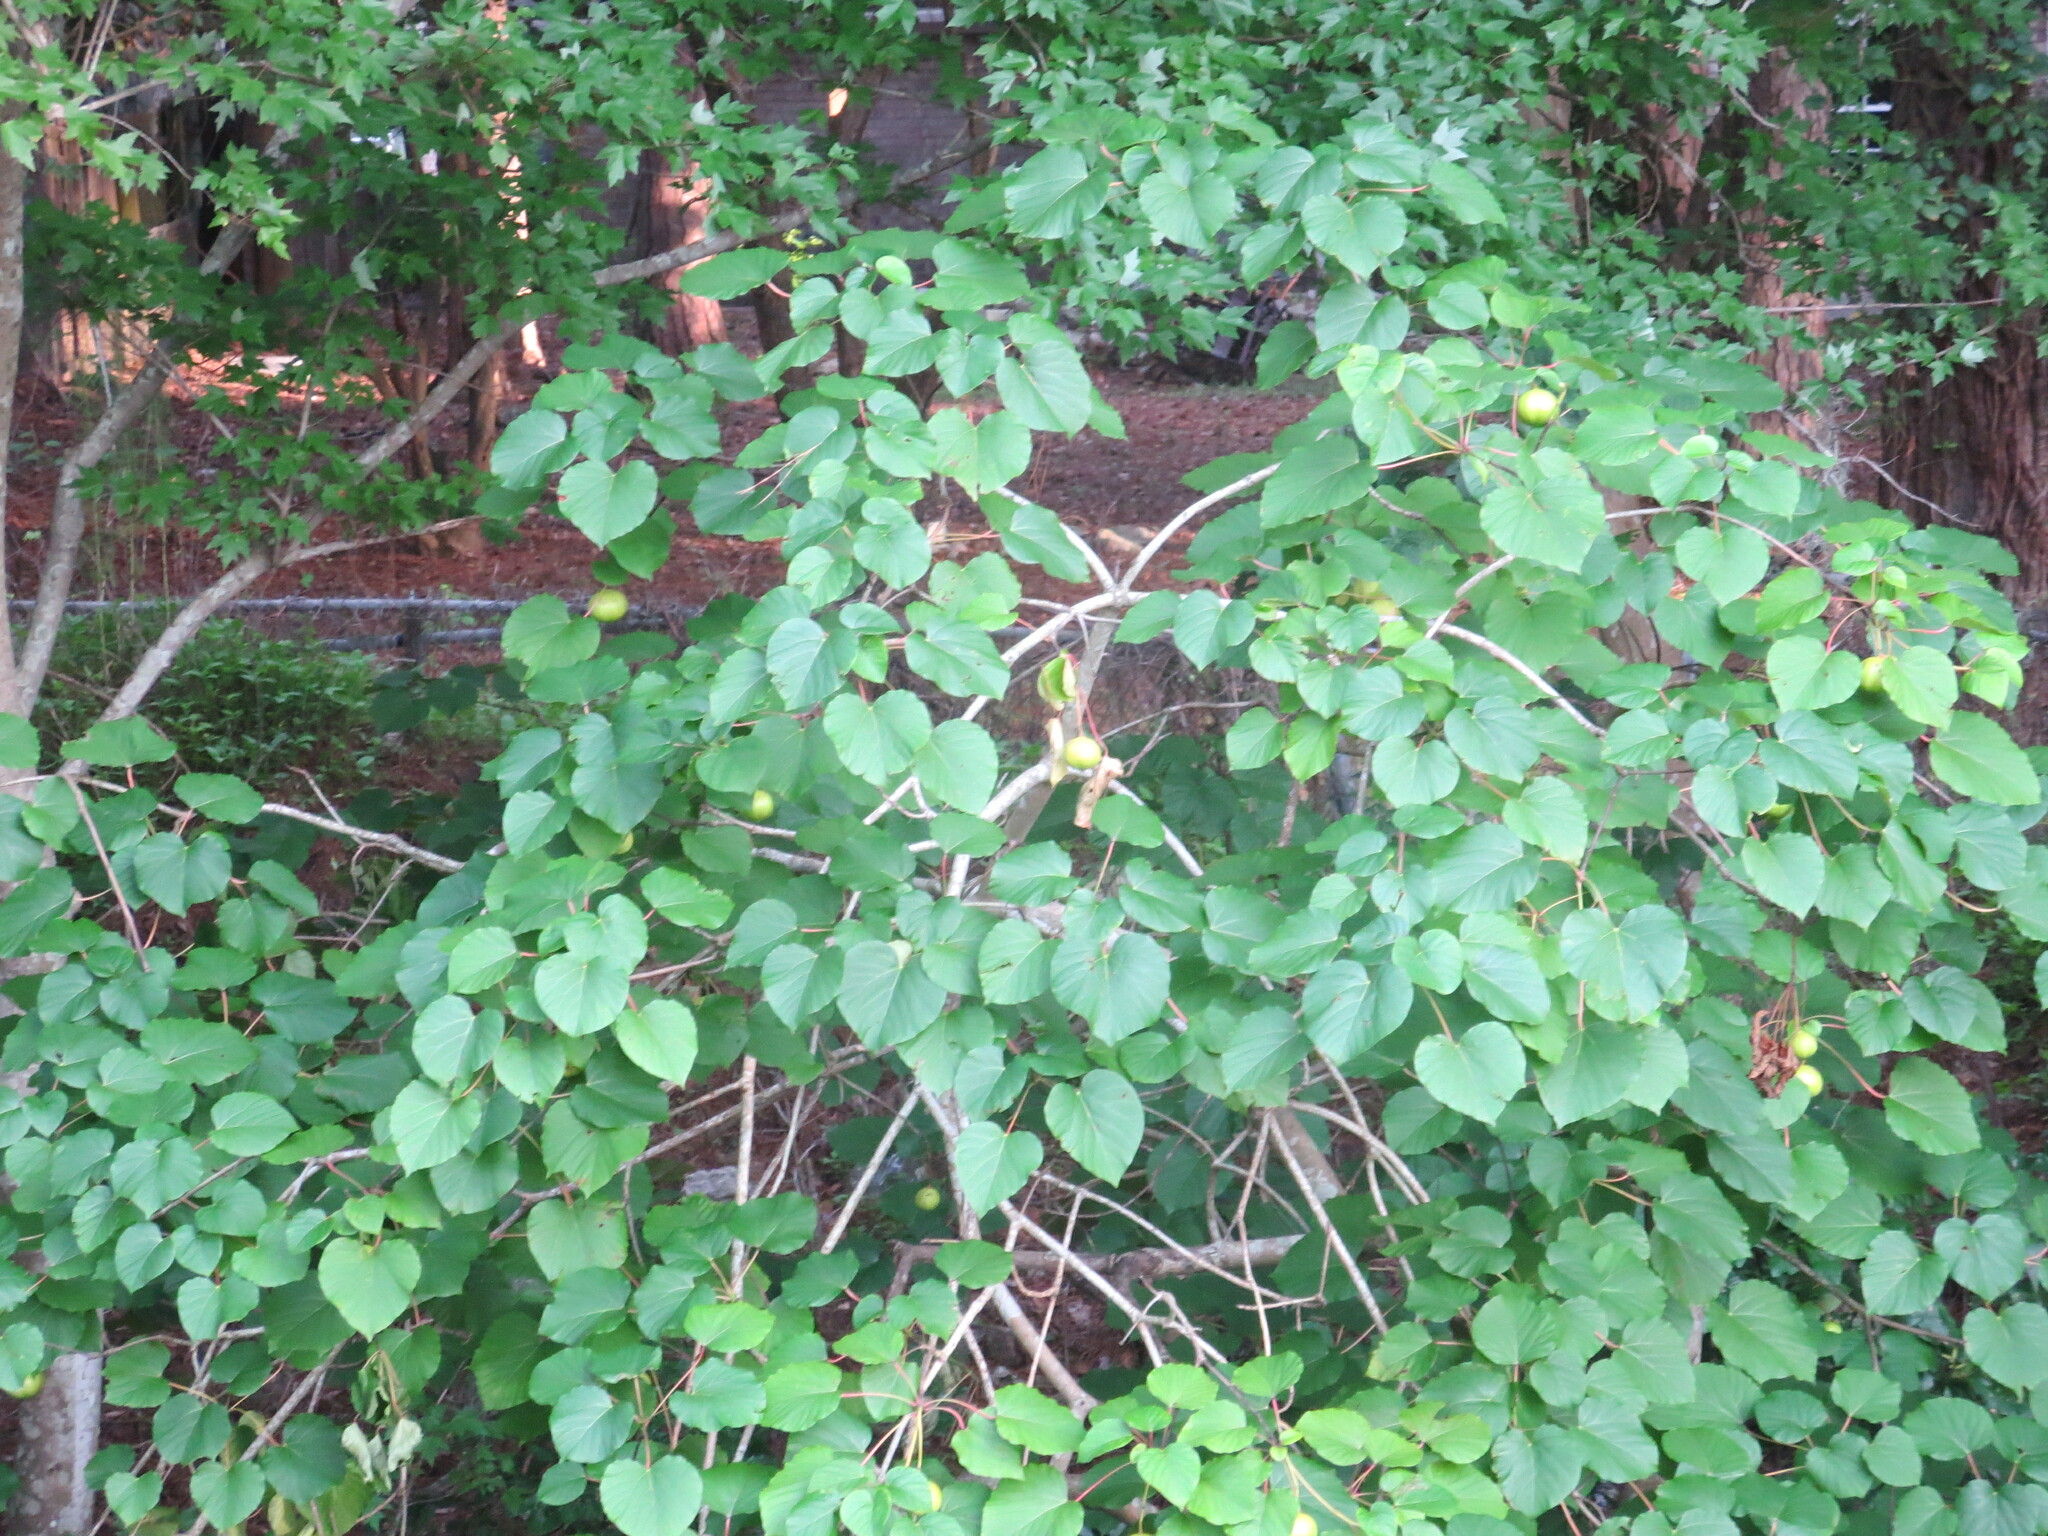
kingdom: Plantae
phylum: Tracheophyta
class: Magnoliopsida
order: Malpighiales
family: Euphorbiaceae
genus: Vernicia
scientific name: Vernicia fordii
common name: Tungoil tree
